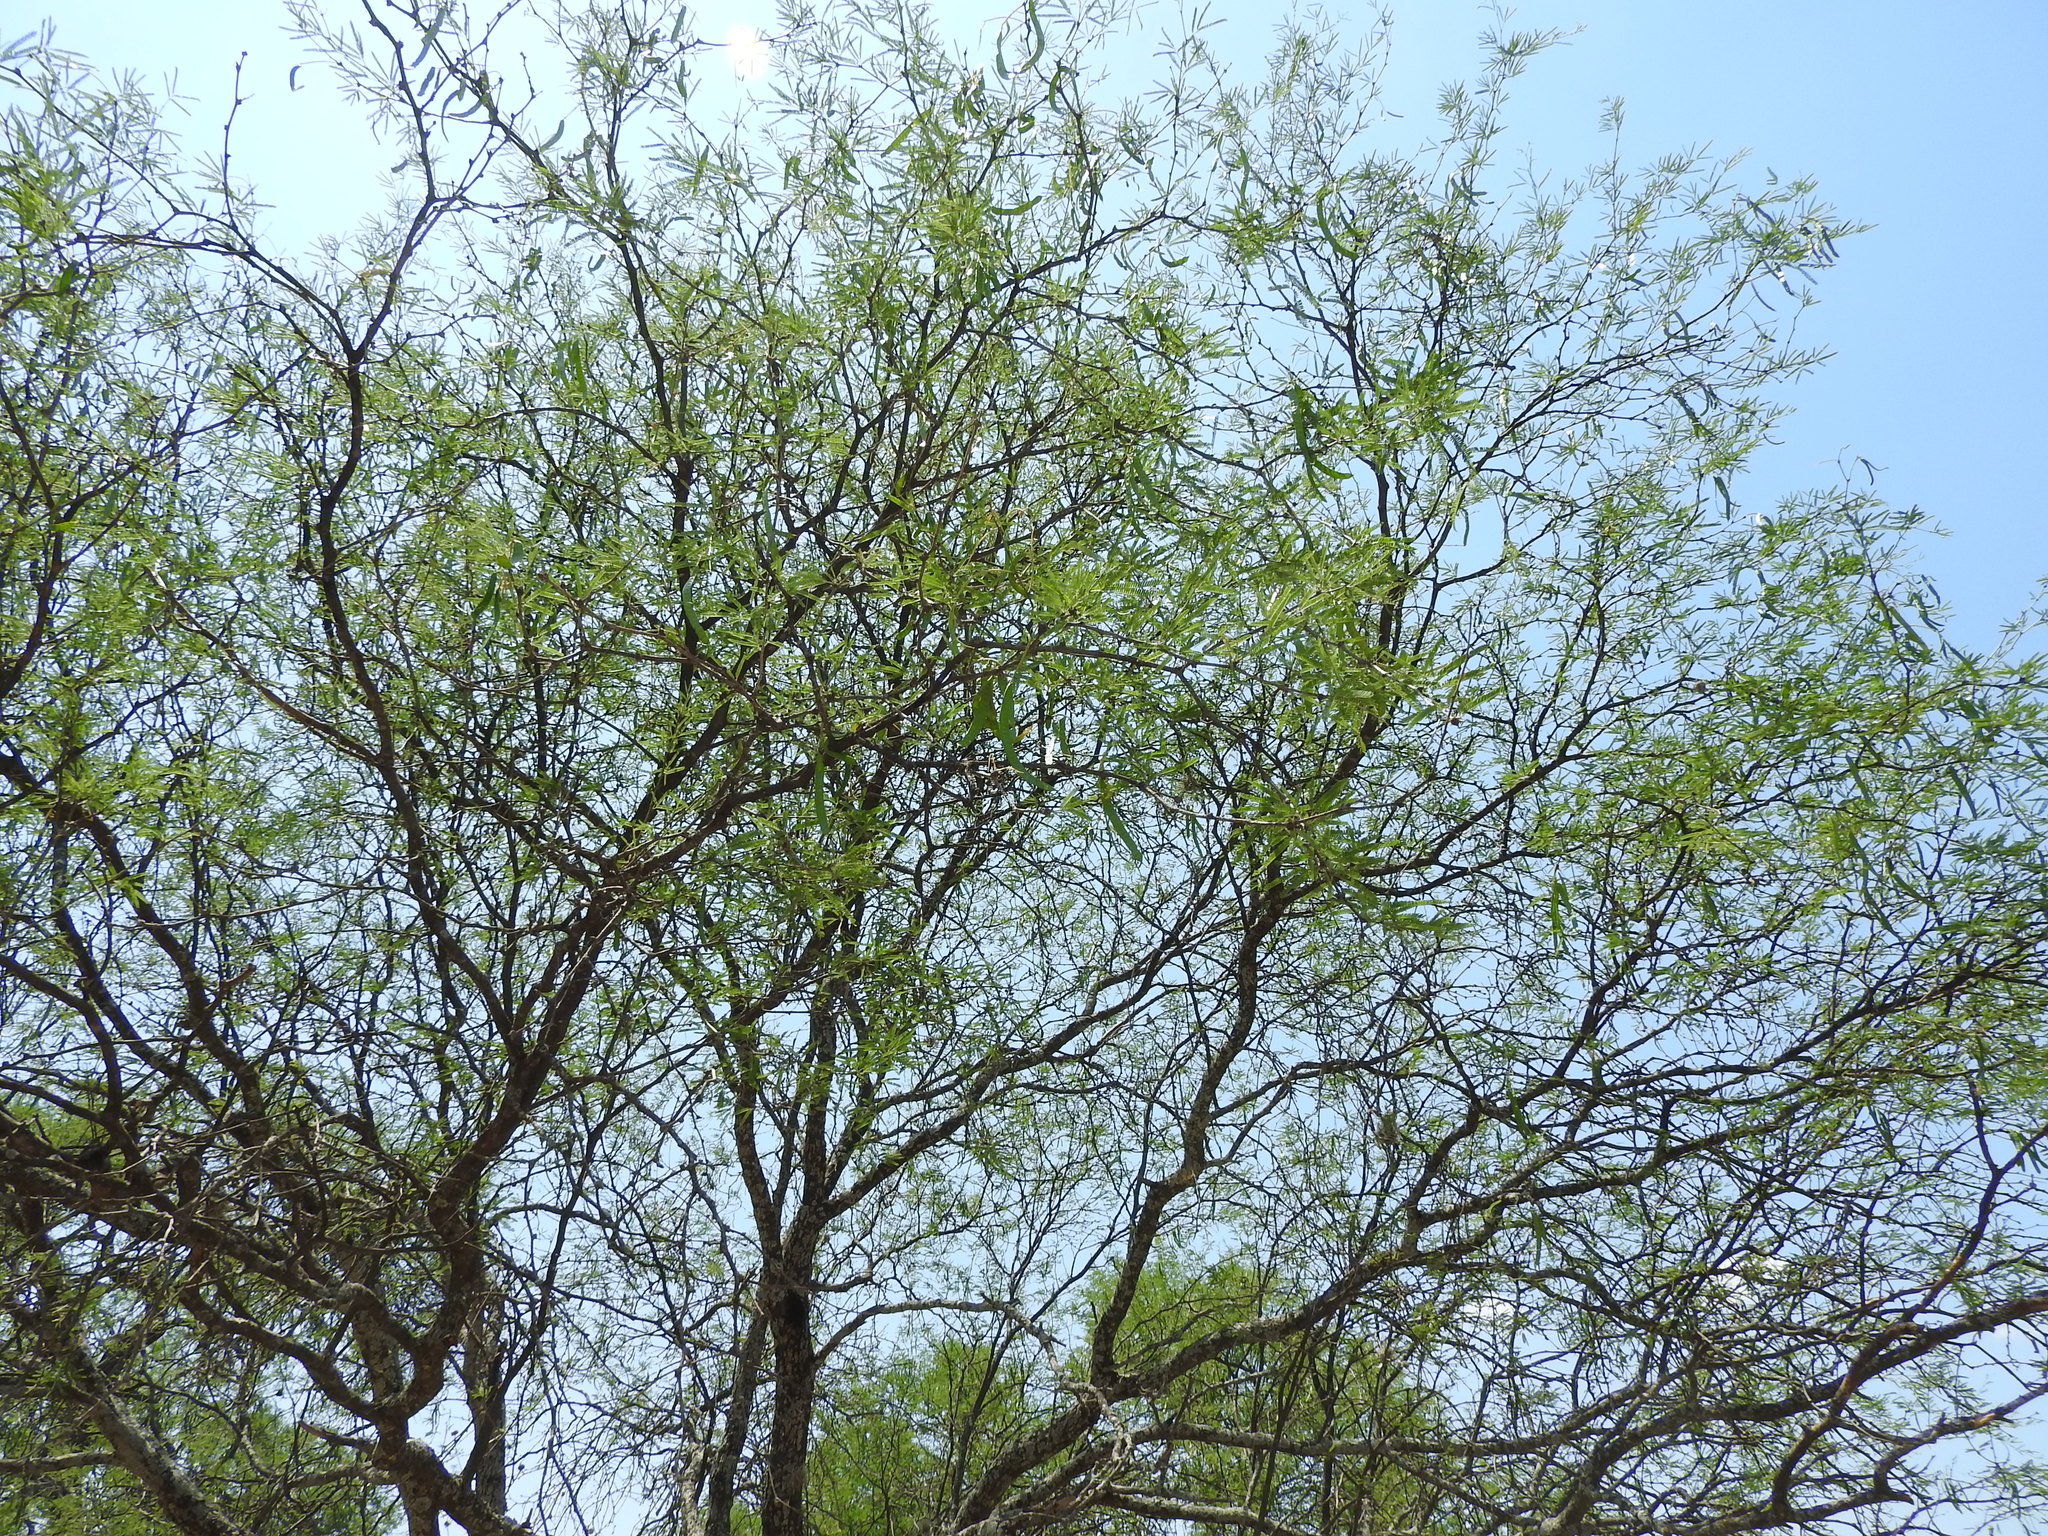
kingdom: Plantae
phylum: Tracheophyta
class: Magnoliopsida
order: Fabales
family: Fabaceae
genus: Prosopis
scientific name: Prosopis laevigata
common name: Smooth mesquite
